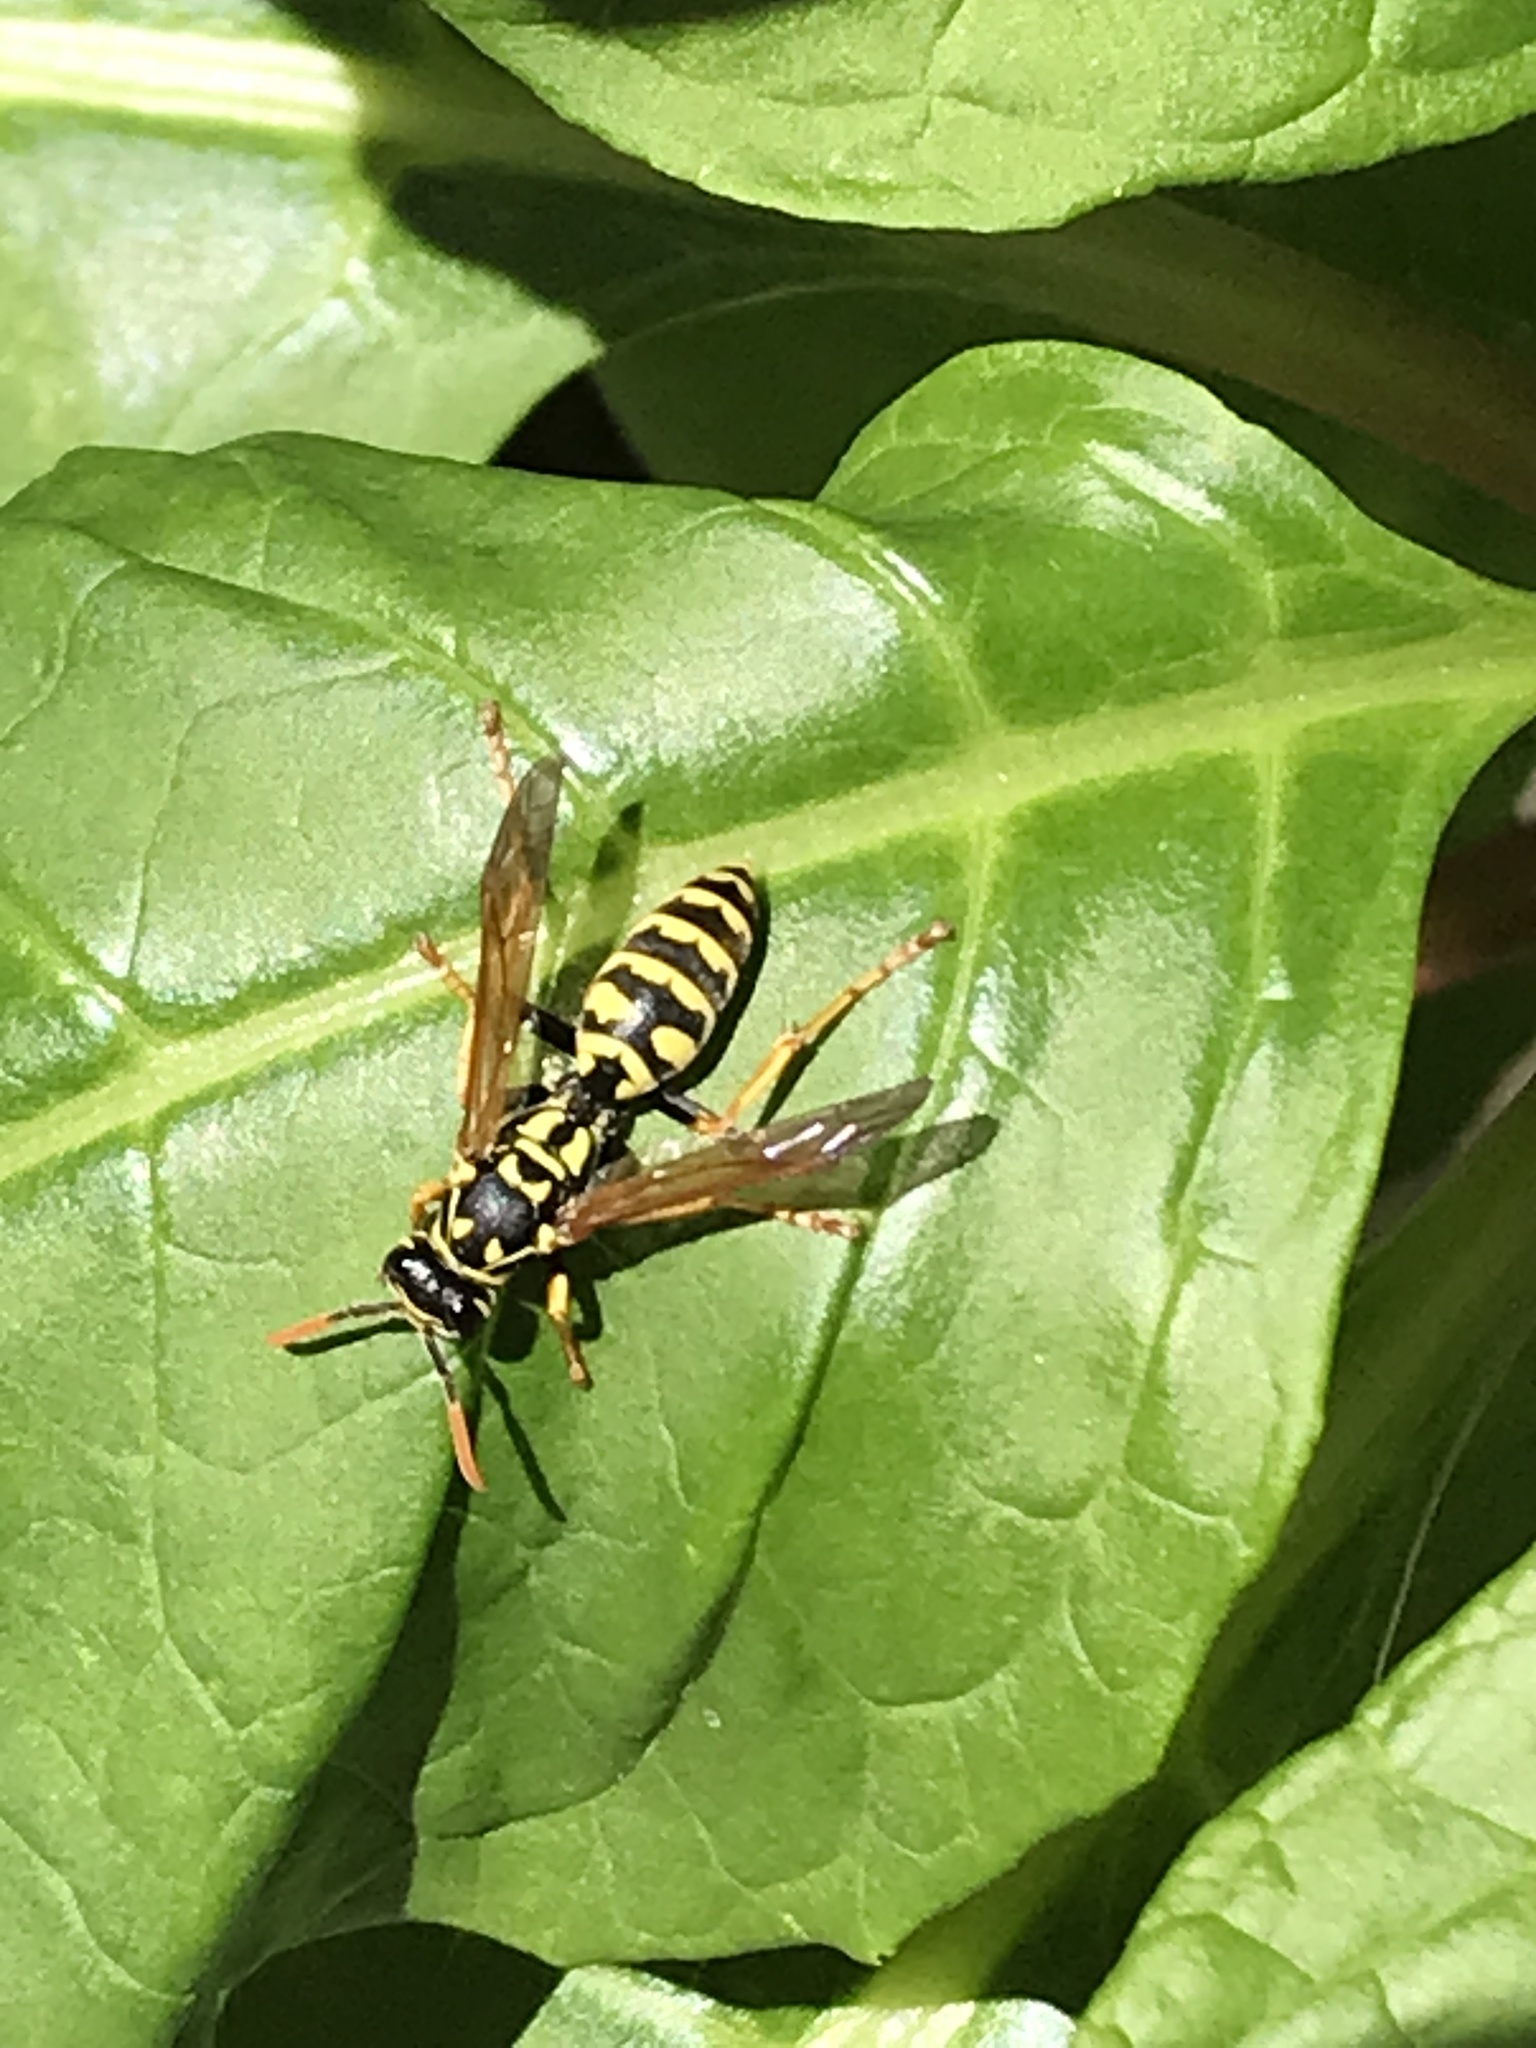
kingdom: Animalia
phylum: Arthropoda
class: Insecta
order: Hymenoptera
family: Eumenidae
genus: Polistes
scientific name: Polistes dominula
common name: Paper wasp
